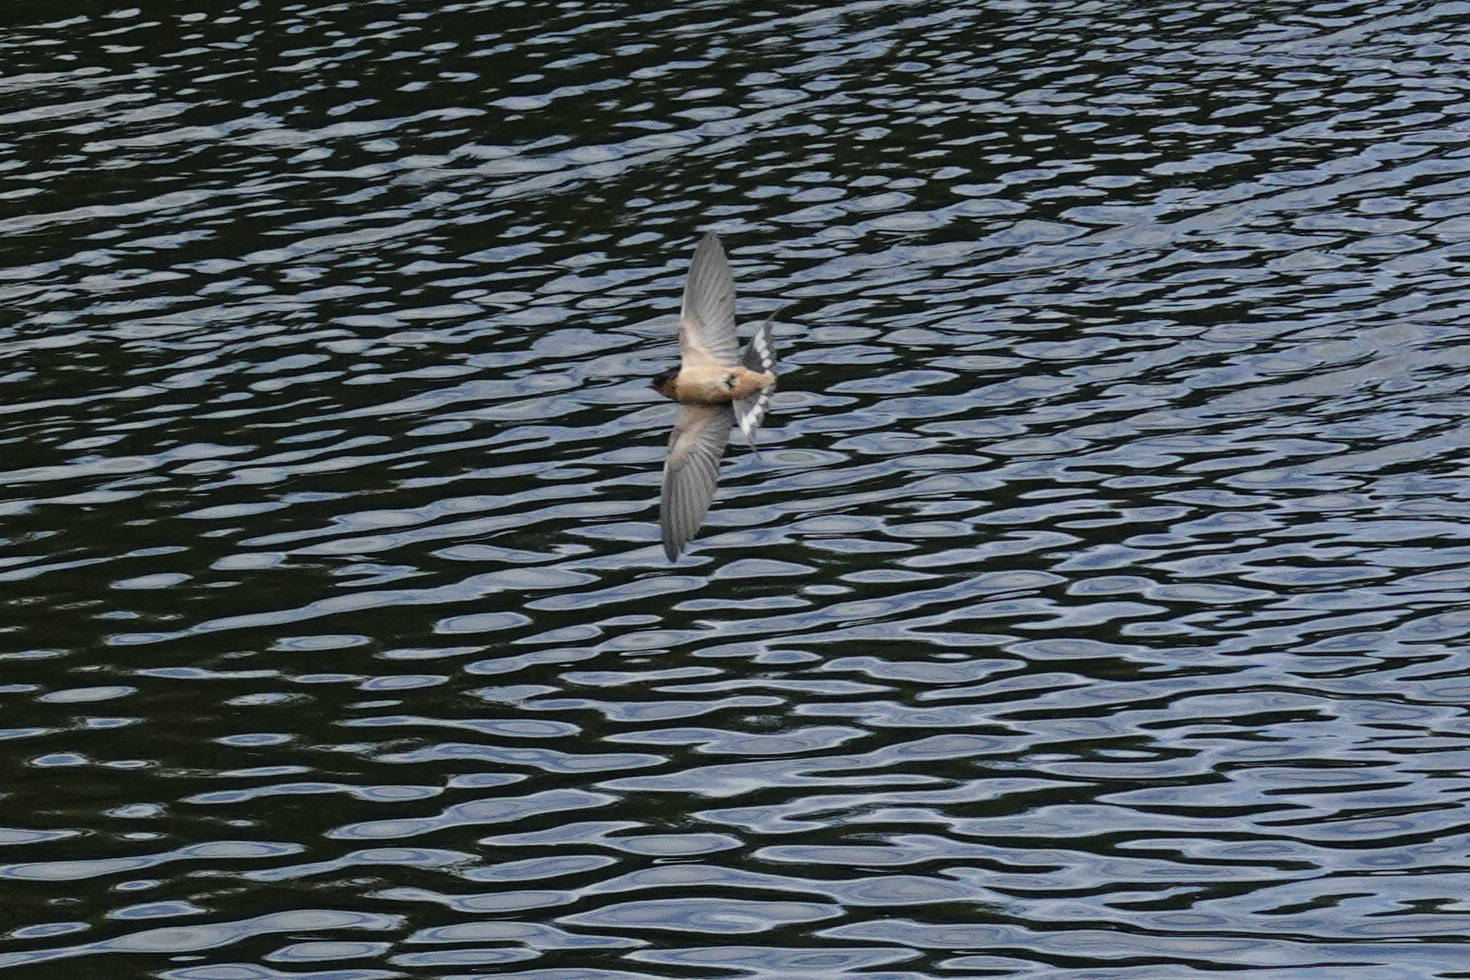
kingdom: Animalia
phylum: Chordata
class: Aves
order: Passeriformes
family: Hirundinidae
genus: Hirundo
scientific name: Hirundo rustica
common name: Barn swallow
